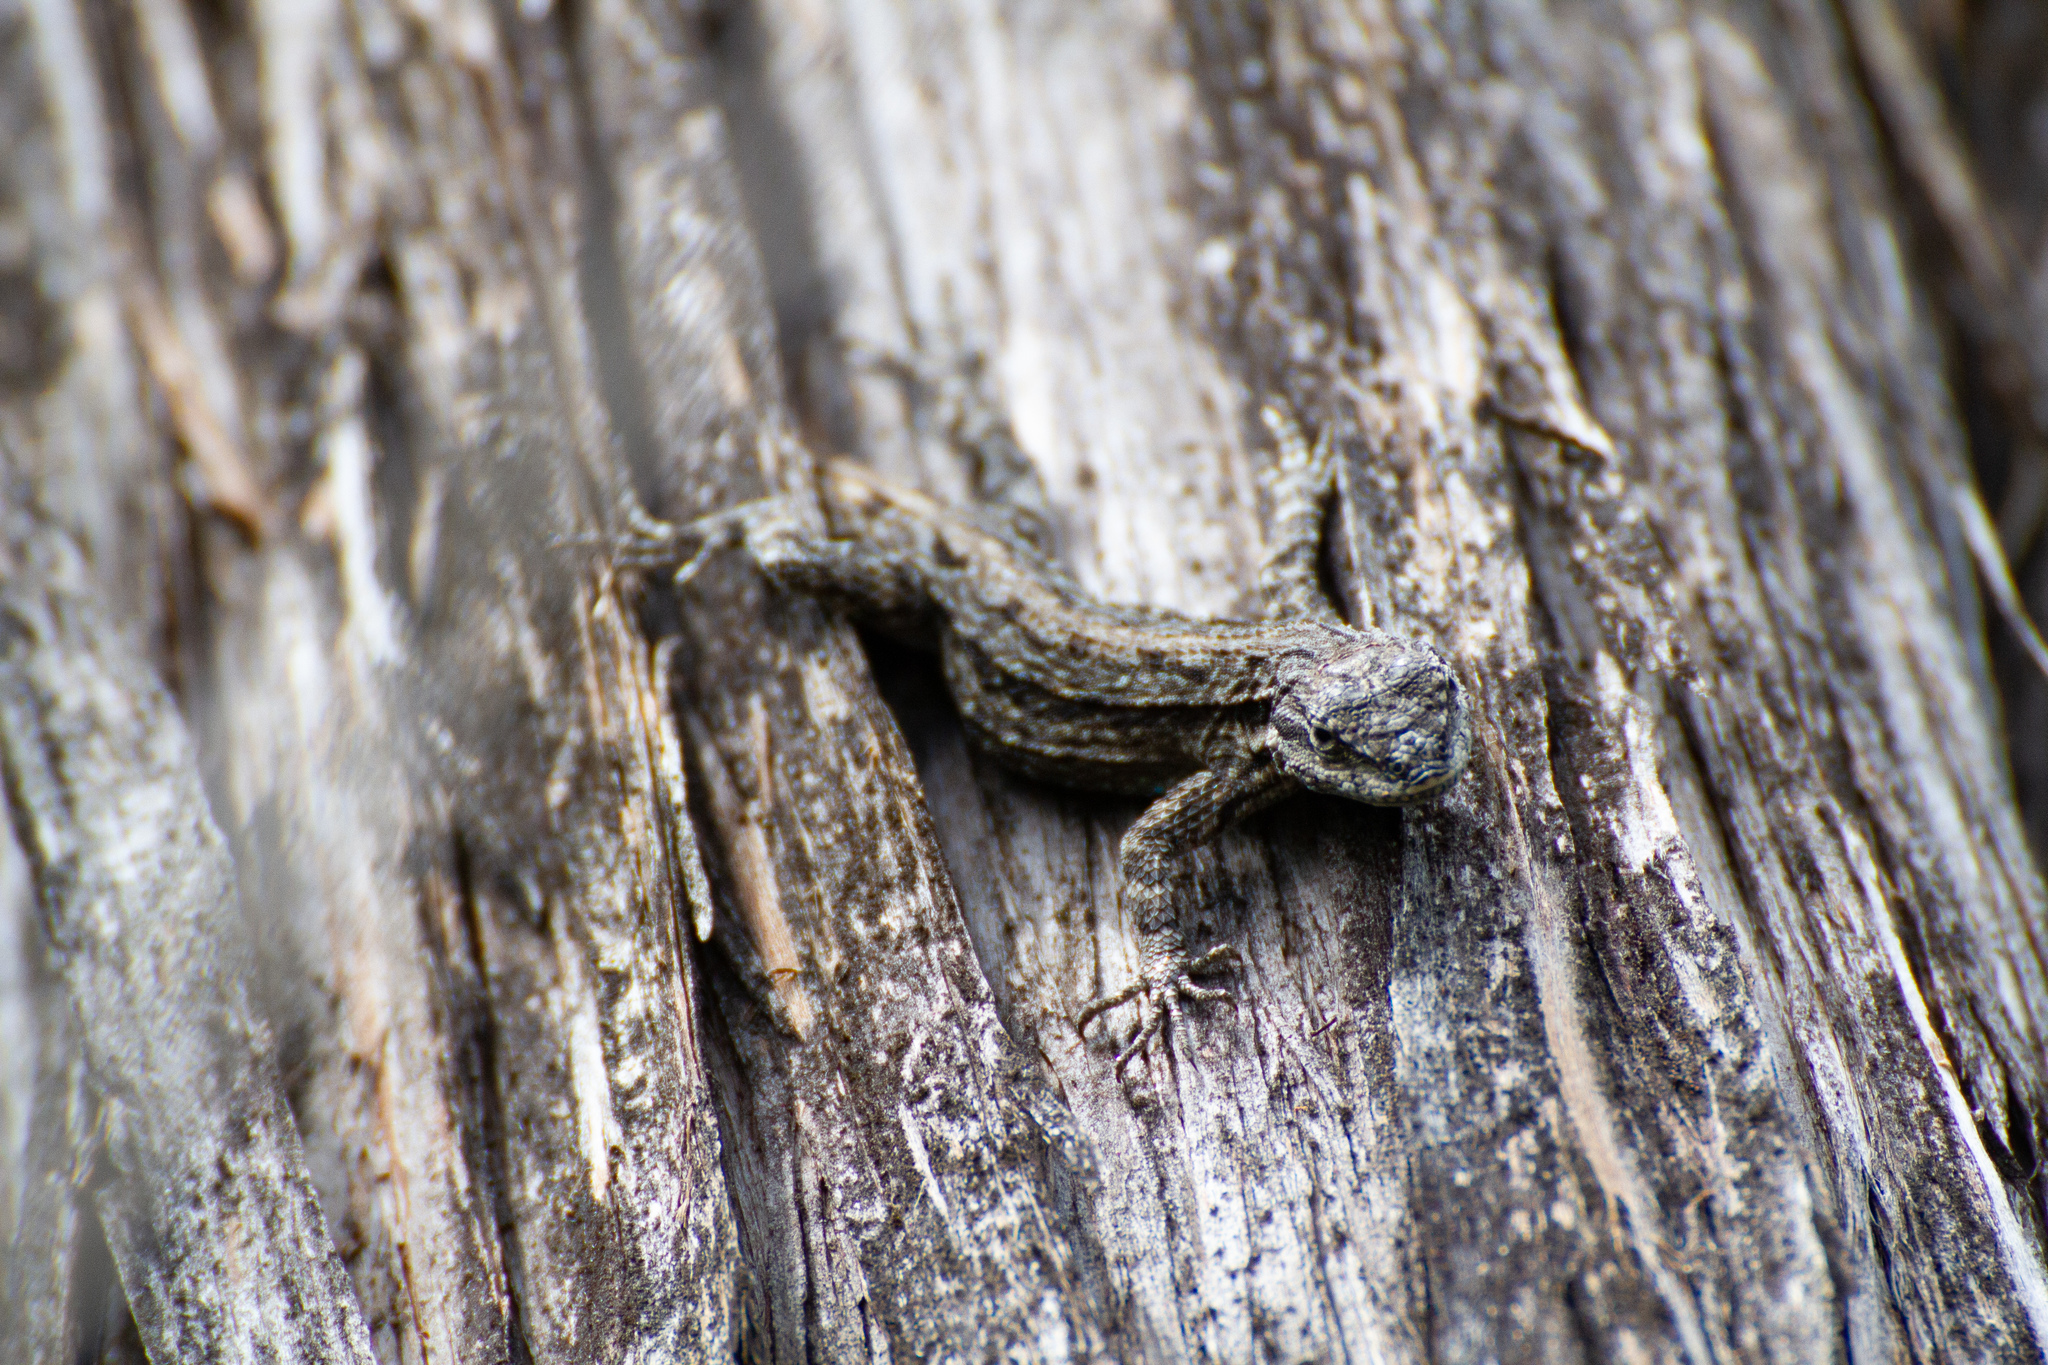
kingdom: Animalia
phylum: Chordata
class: Squamata
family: Phrynosomatidae
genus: Urosaurus
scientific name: Urosaurus ornatus
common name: Ornate tree lizard
